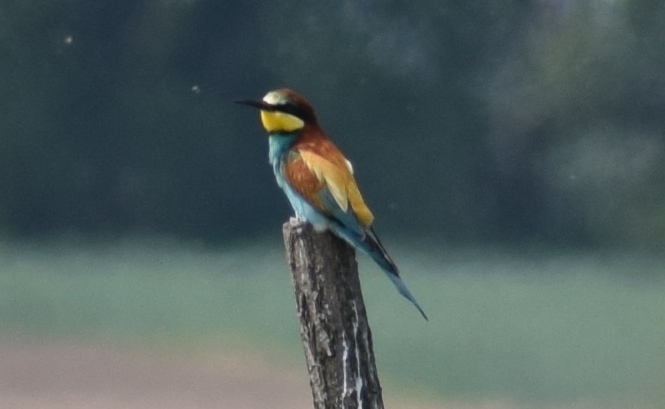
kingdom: Animalia
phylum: Chordata
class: Aves
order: Coraciiformes
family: Meropidae
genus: Merops
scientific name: Merops apiaster
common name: European bee-eater
